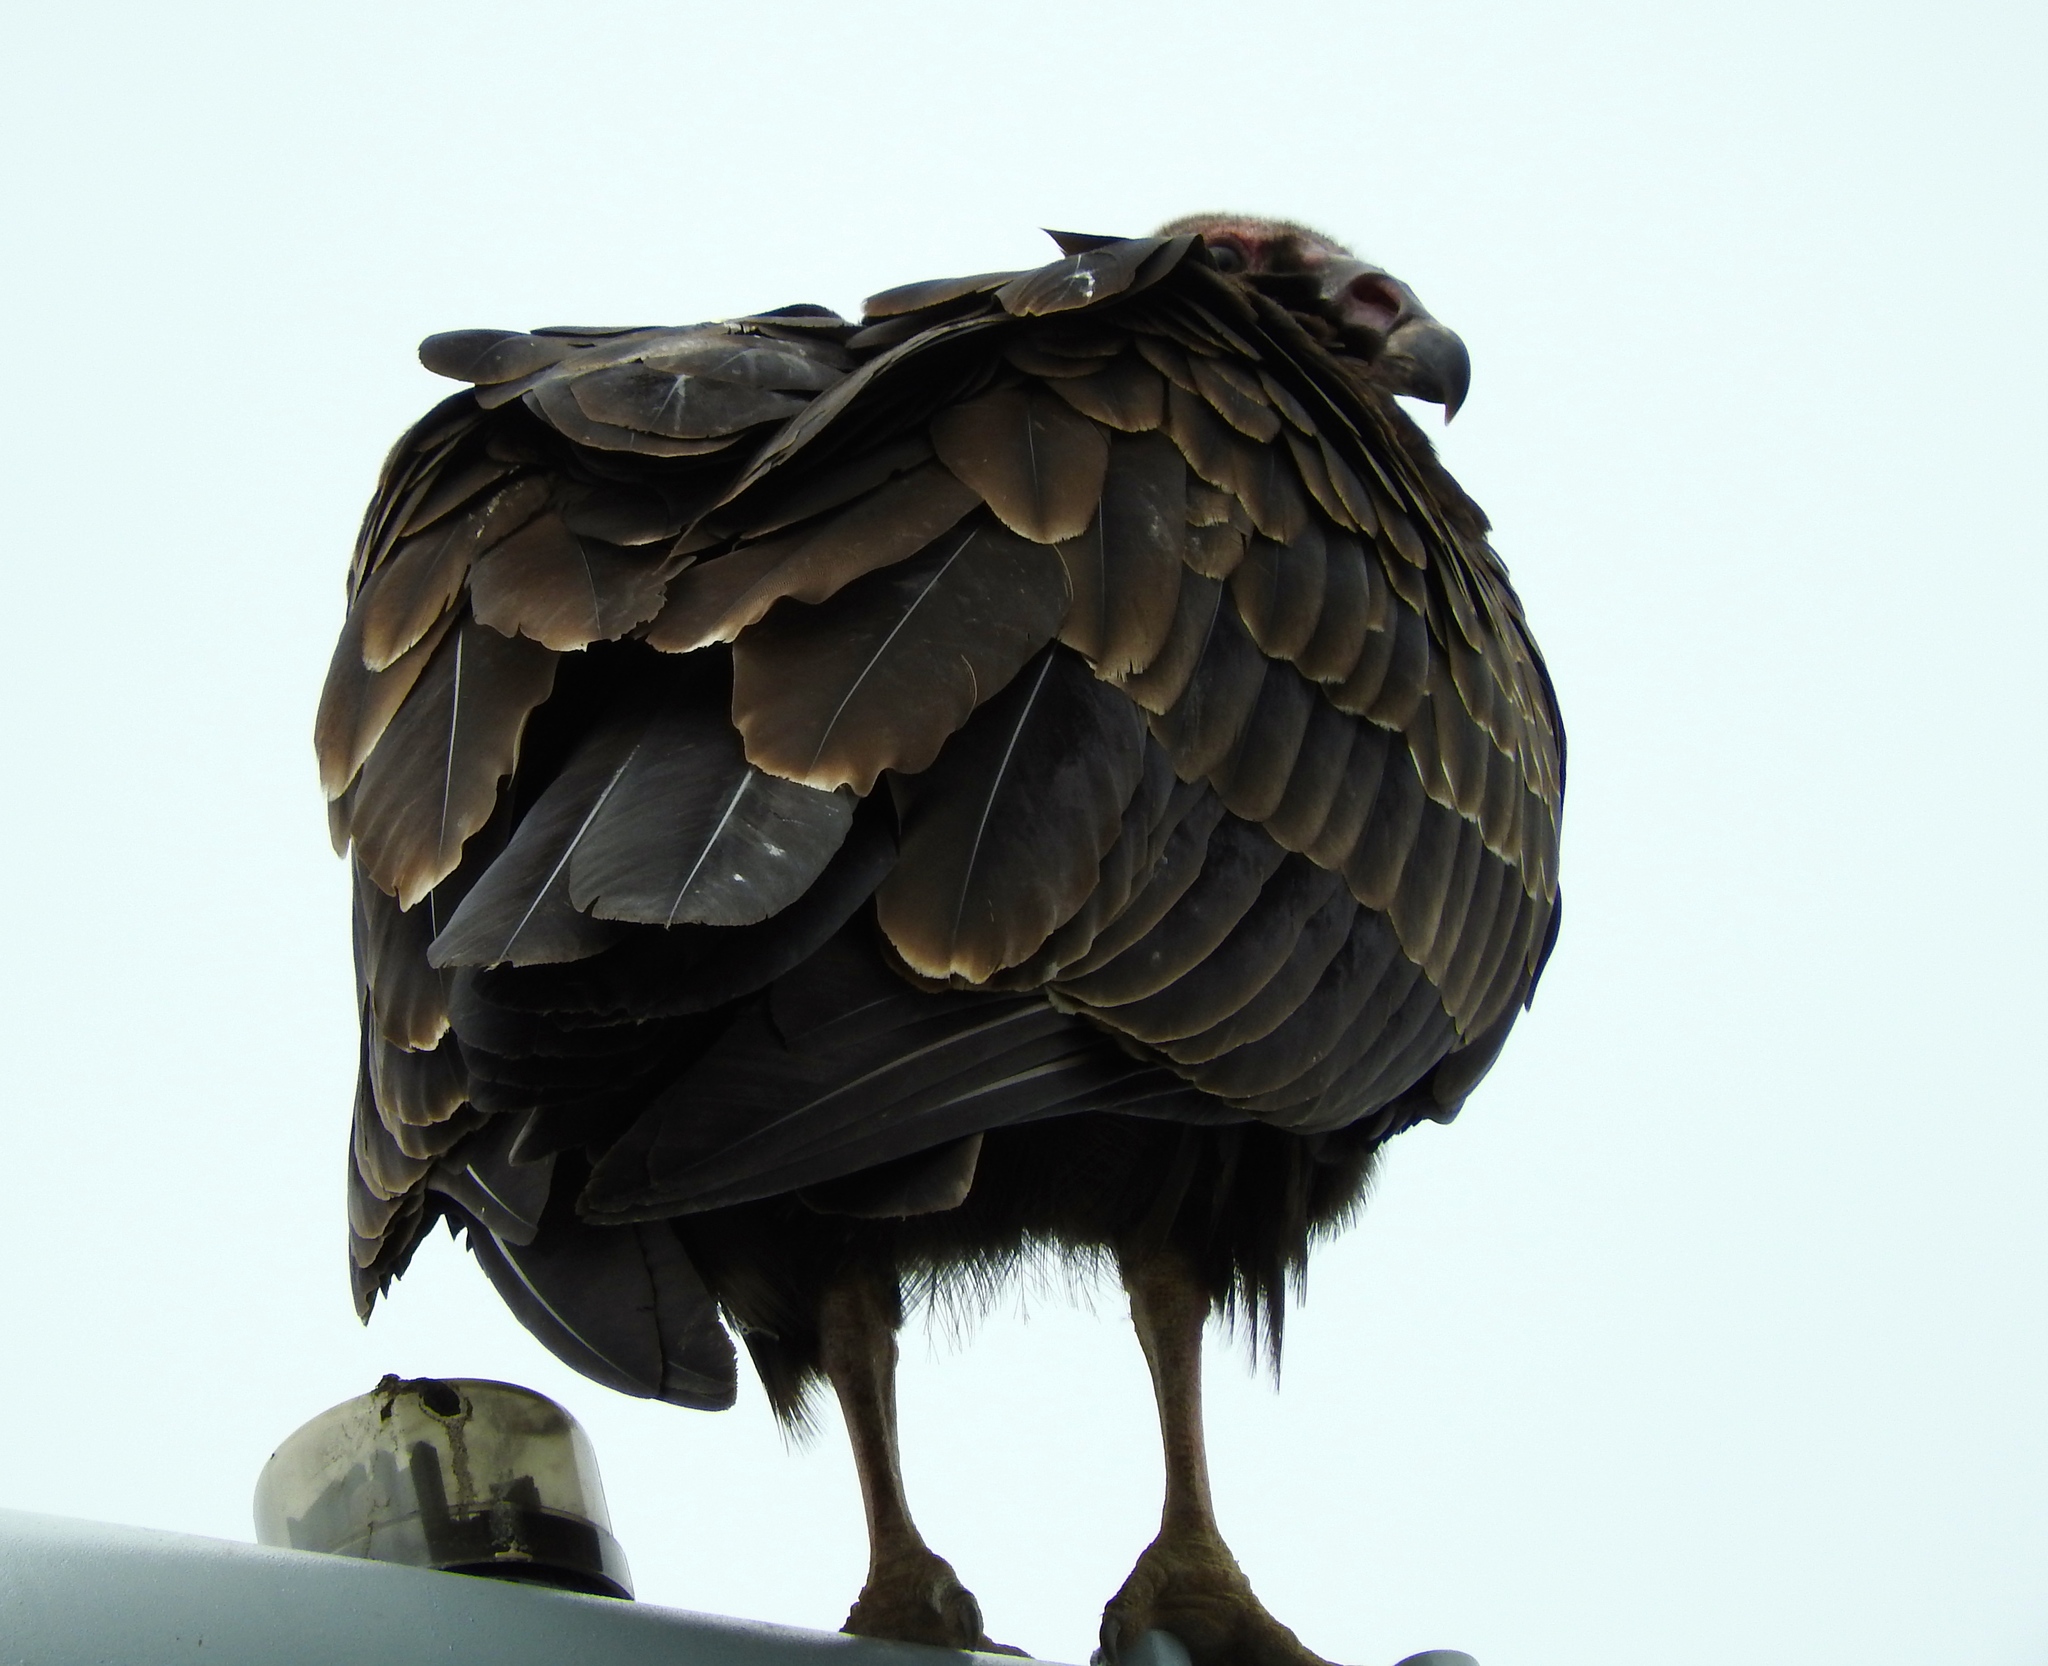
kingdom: Animalia
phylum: Chordata
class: Aves
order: Accipitriformes
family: Cathartidae
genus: Cathartes
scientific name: Cathartes aura
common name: Turkey vulture
